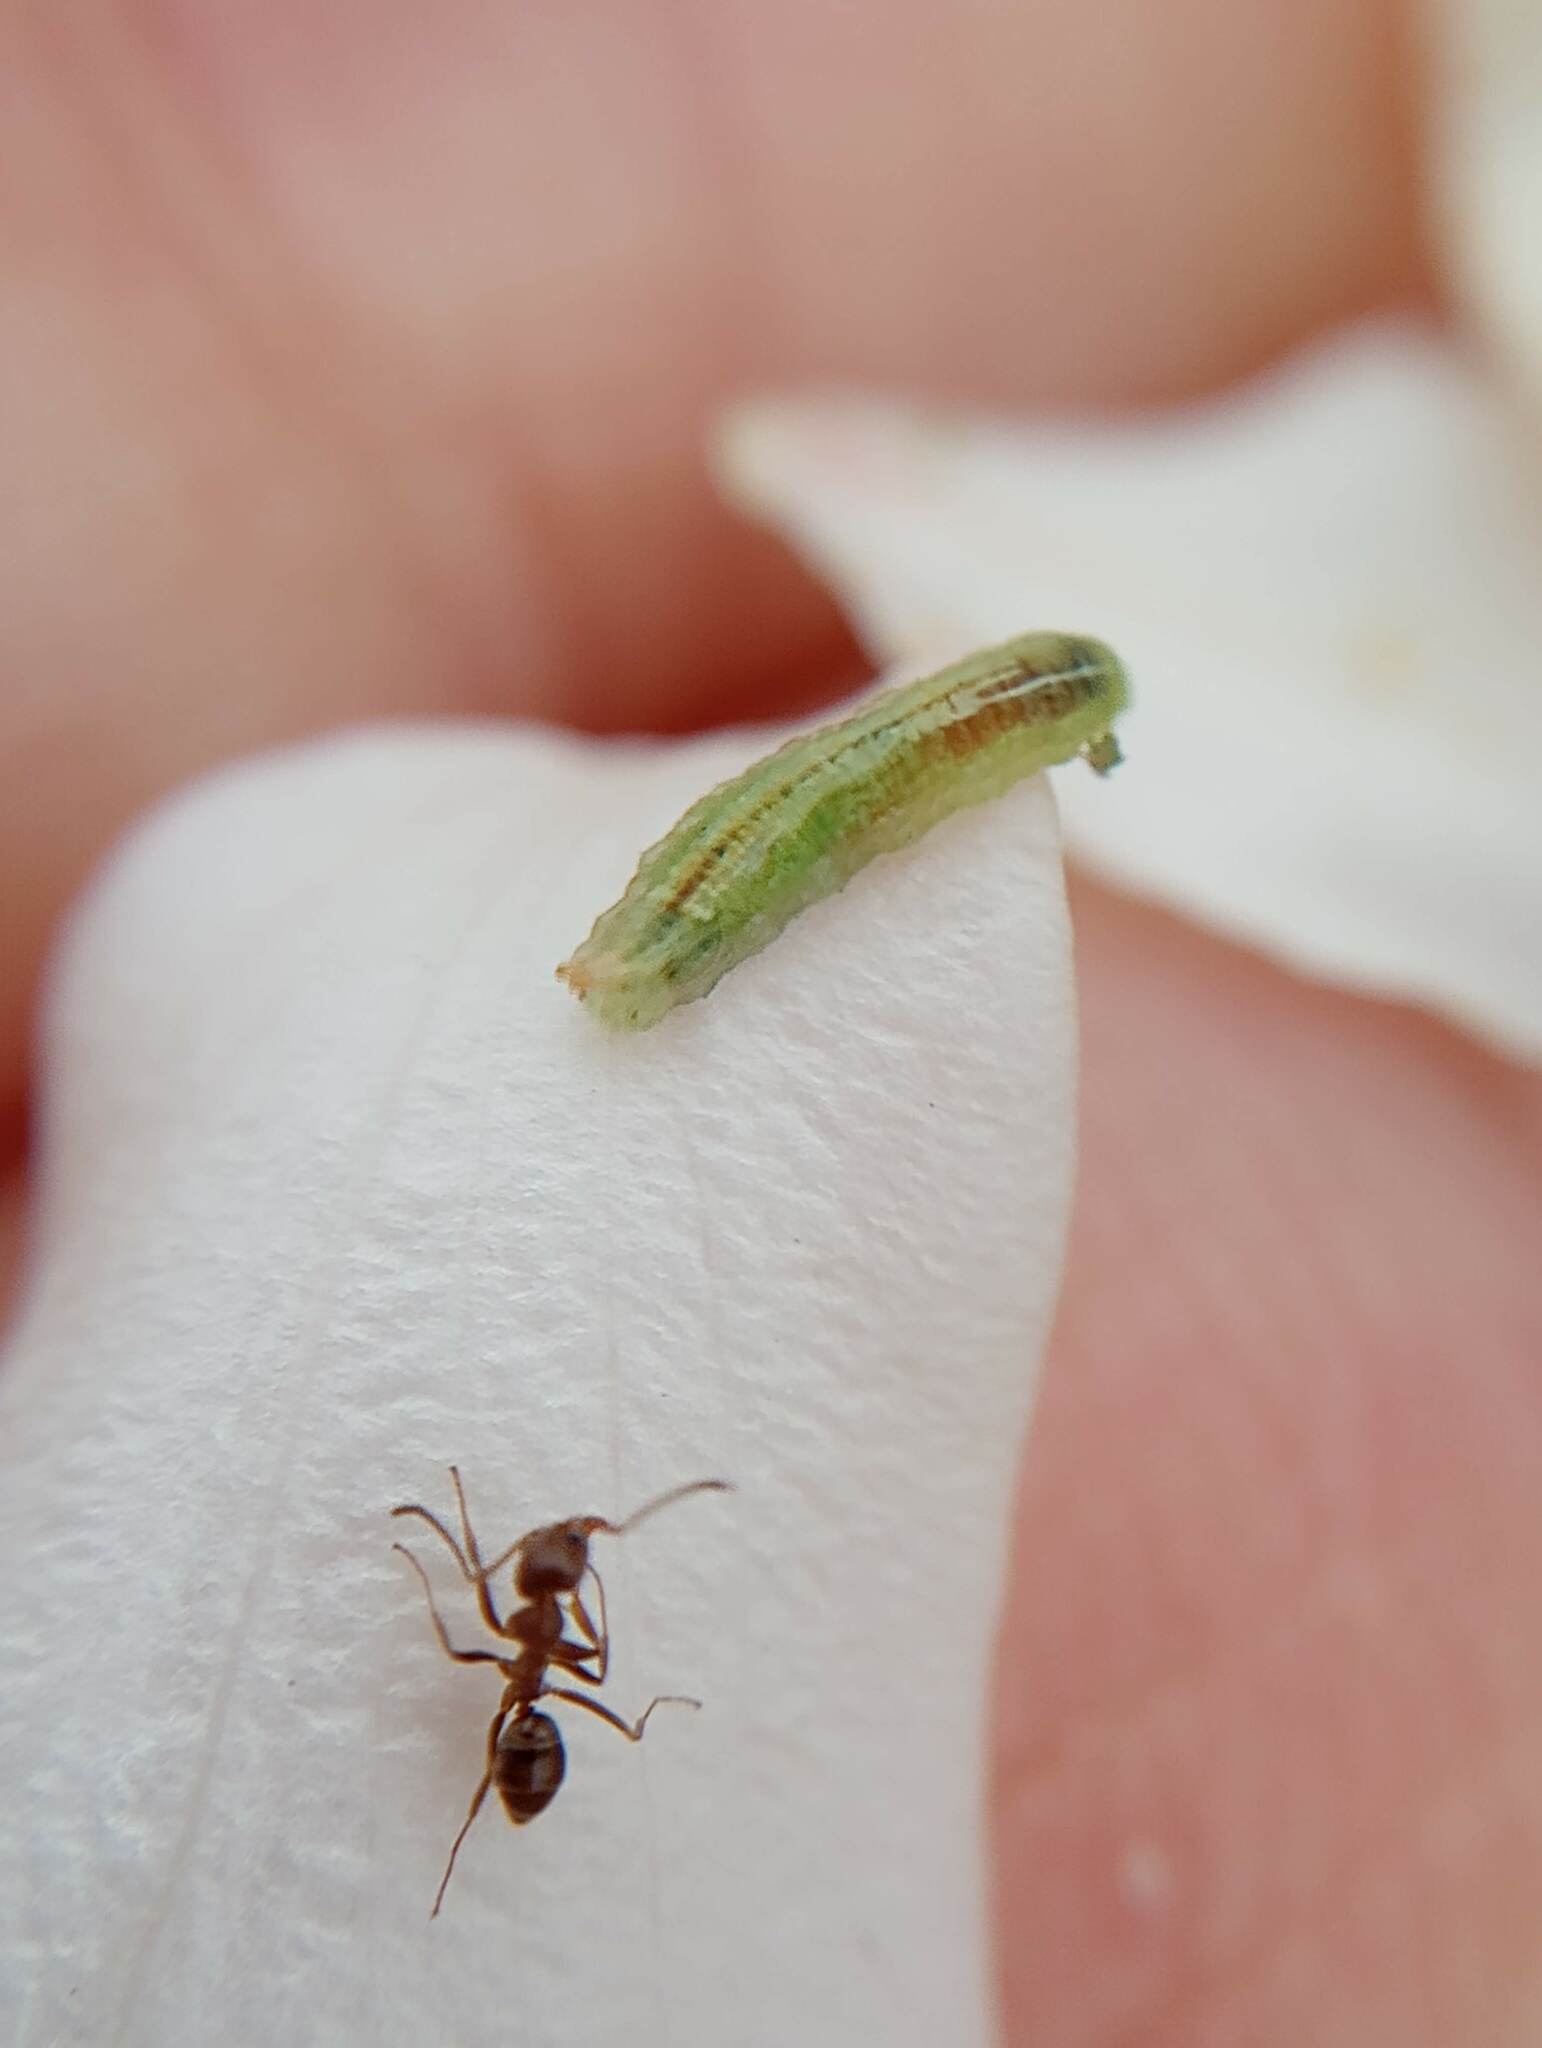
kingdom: Animalia
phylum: Arthropoda
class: Insecta
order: Hymenoptera
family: Formicidae
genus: Linepithema
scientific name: Linepithema humile
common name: Argentine ant
